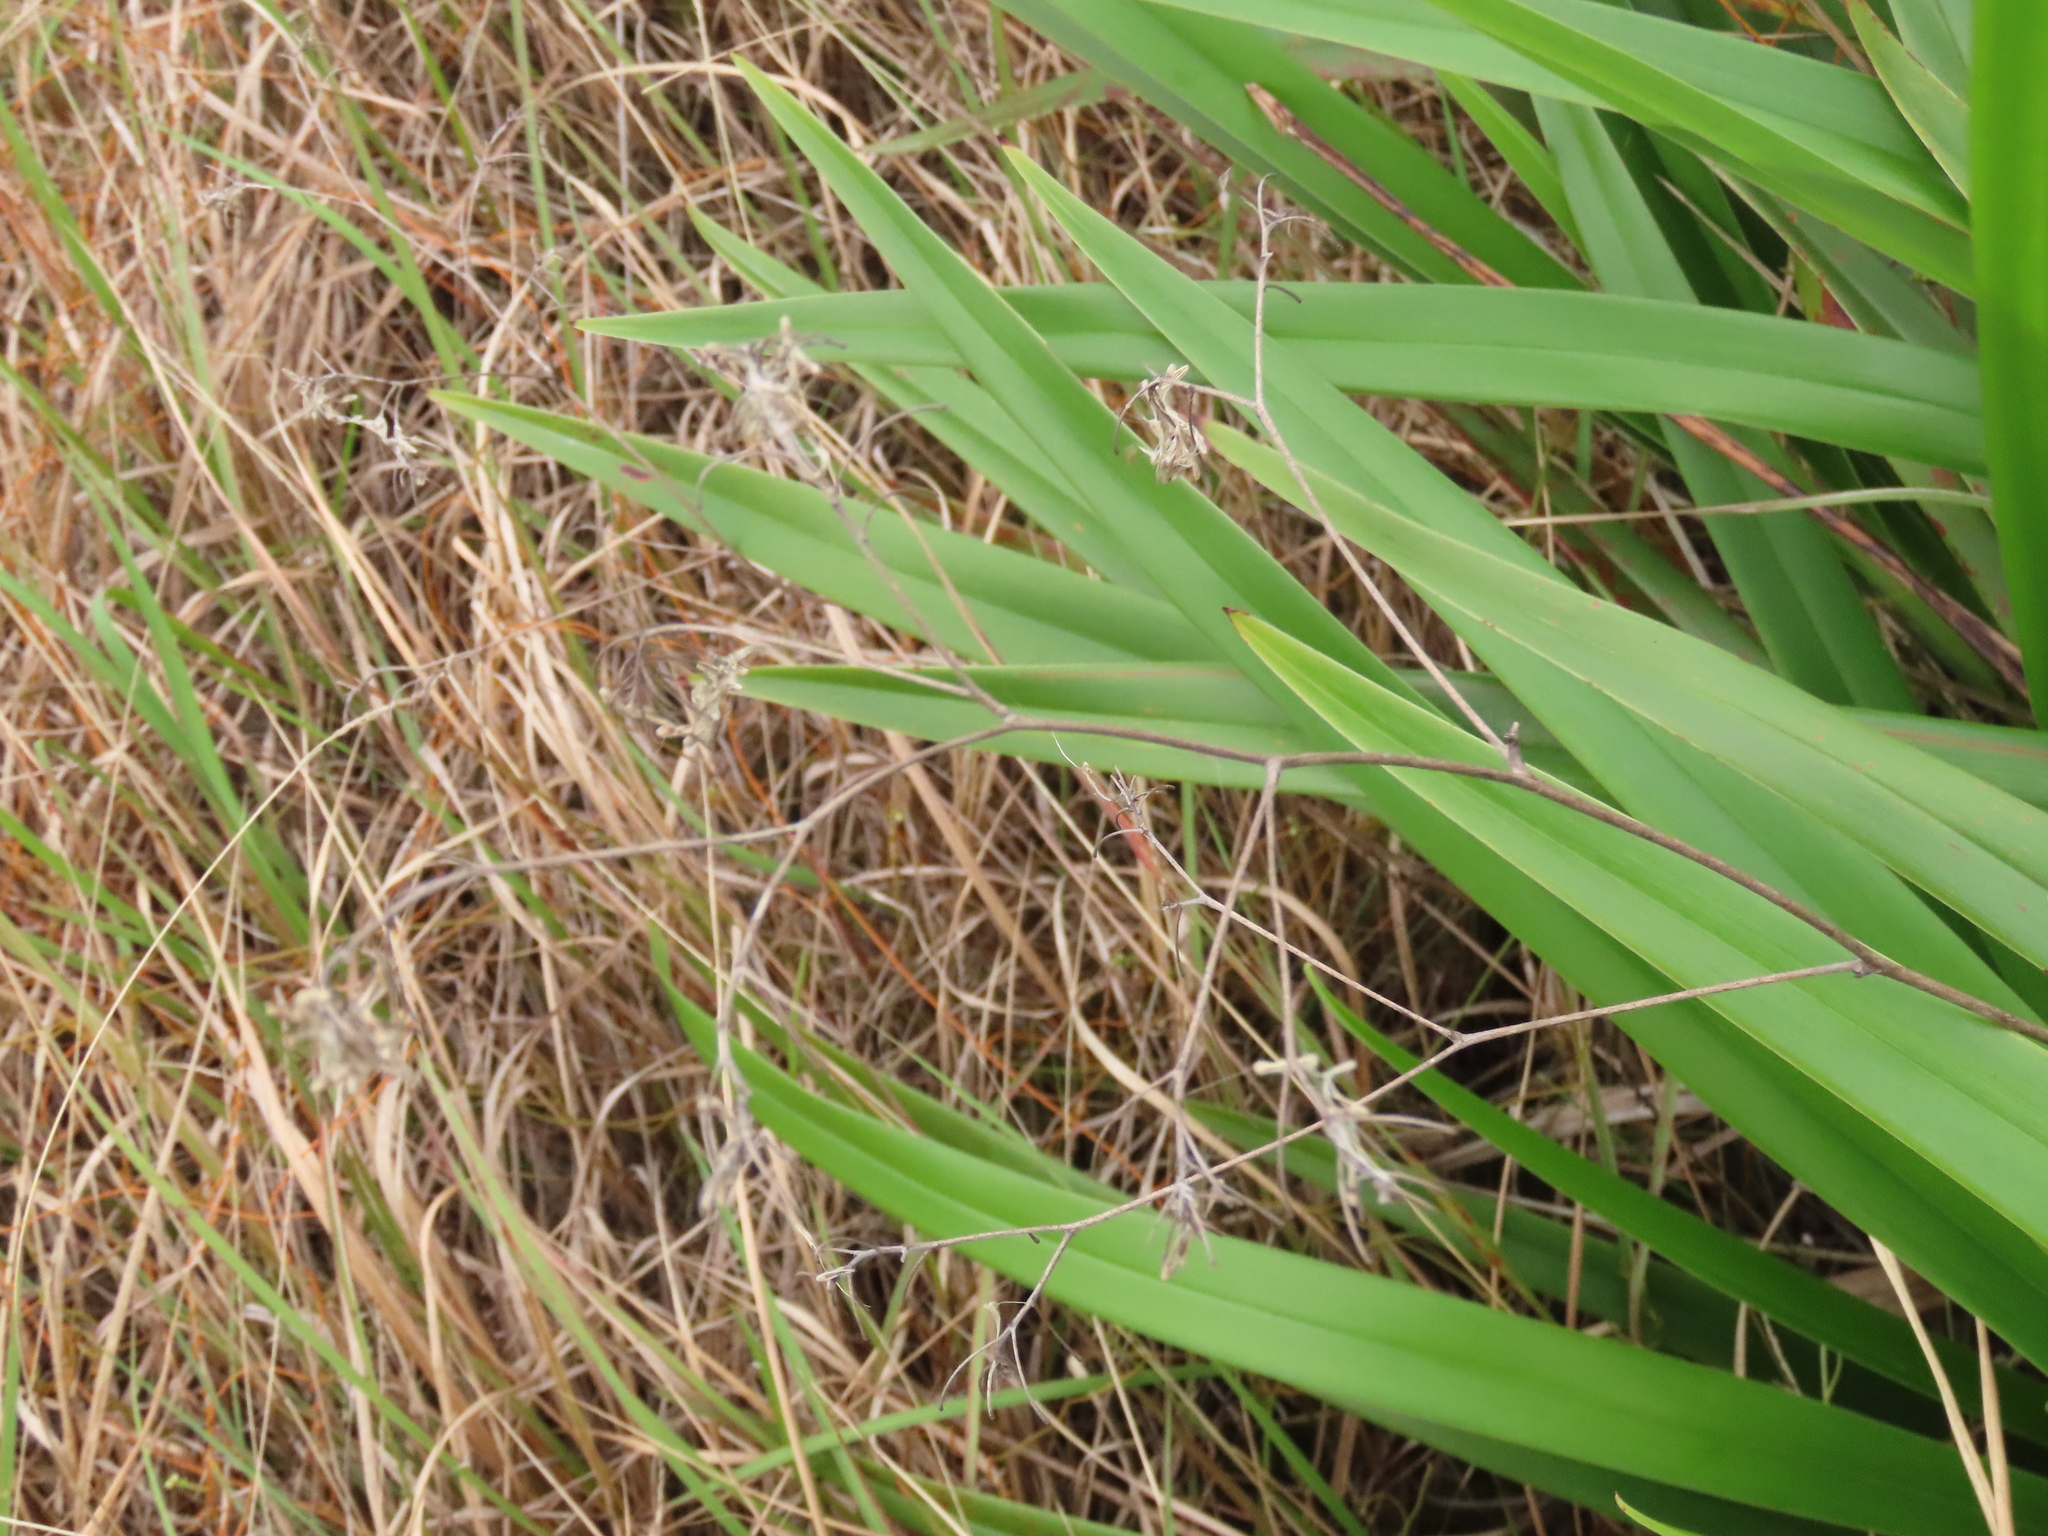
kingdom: Plantae
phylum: Tracheophyta
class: Liliopsida
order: Asparagales
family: Asphodelaceae
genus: Dianella
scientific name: Dianella ensifolia
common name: New zealand lilyplant
